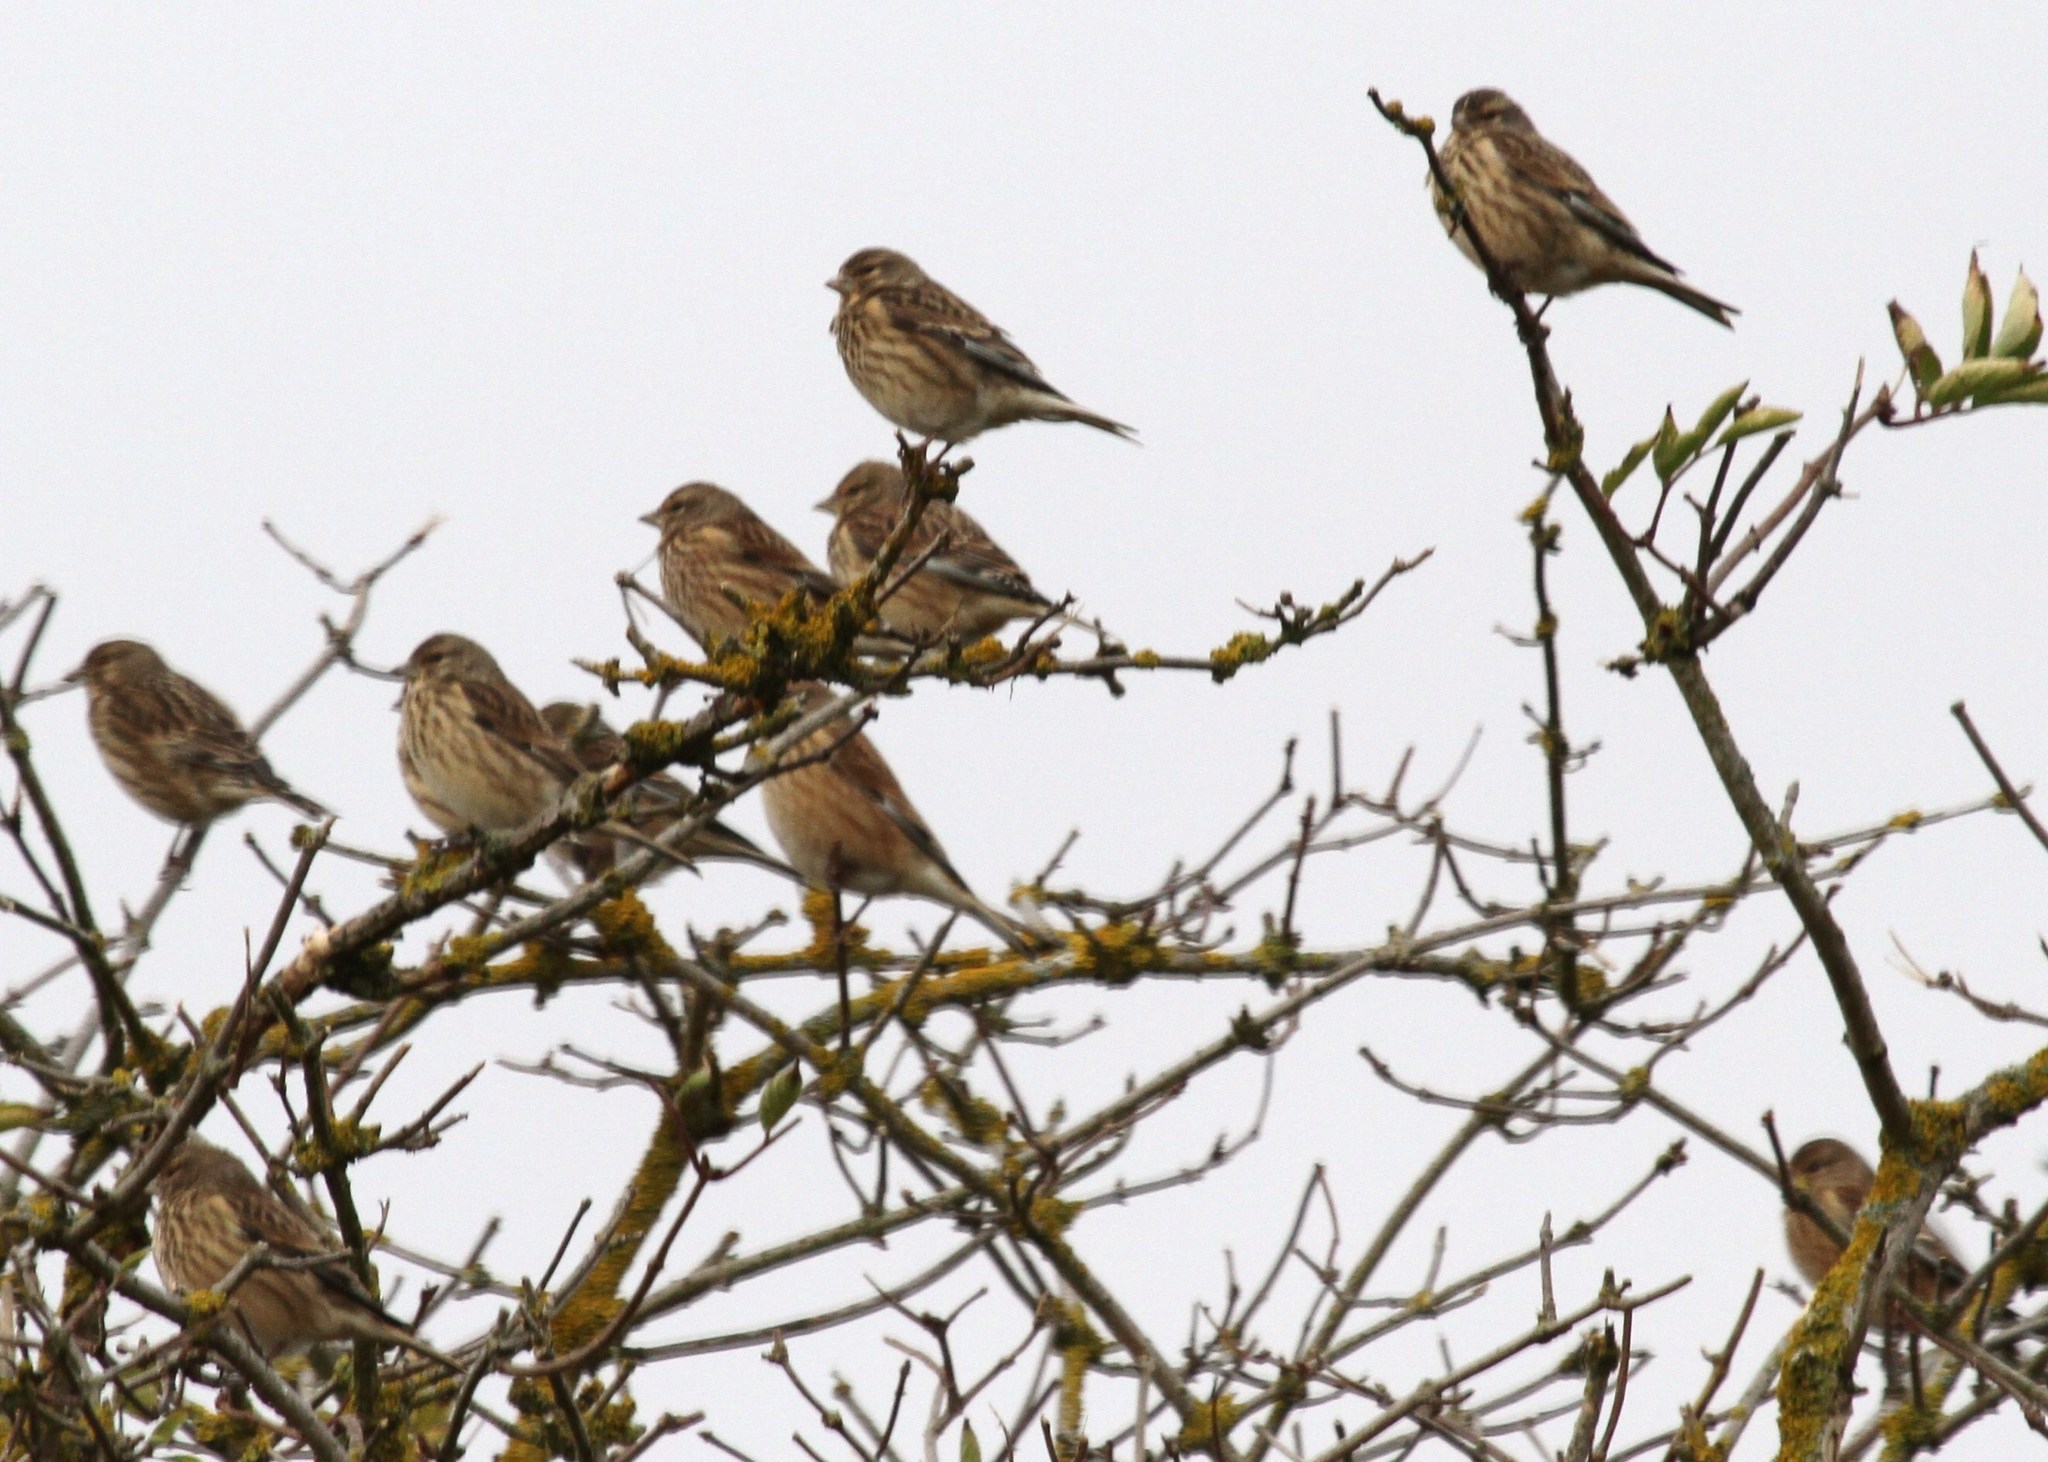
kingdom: Animalia
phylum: Chordata
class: Aves
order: Passeriformes
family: Fringillidae
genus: Linaria
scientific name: Linaria cannabina
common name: Common linnet
